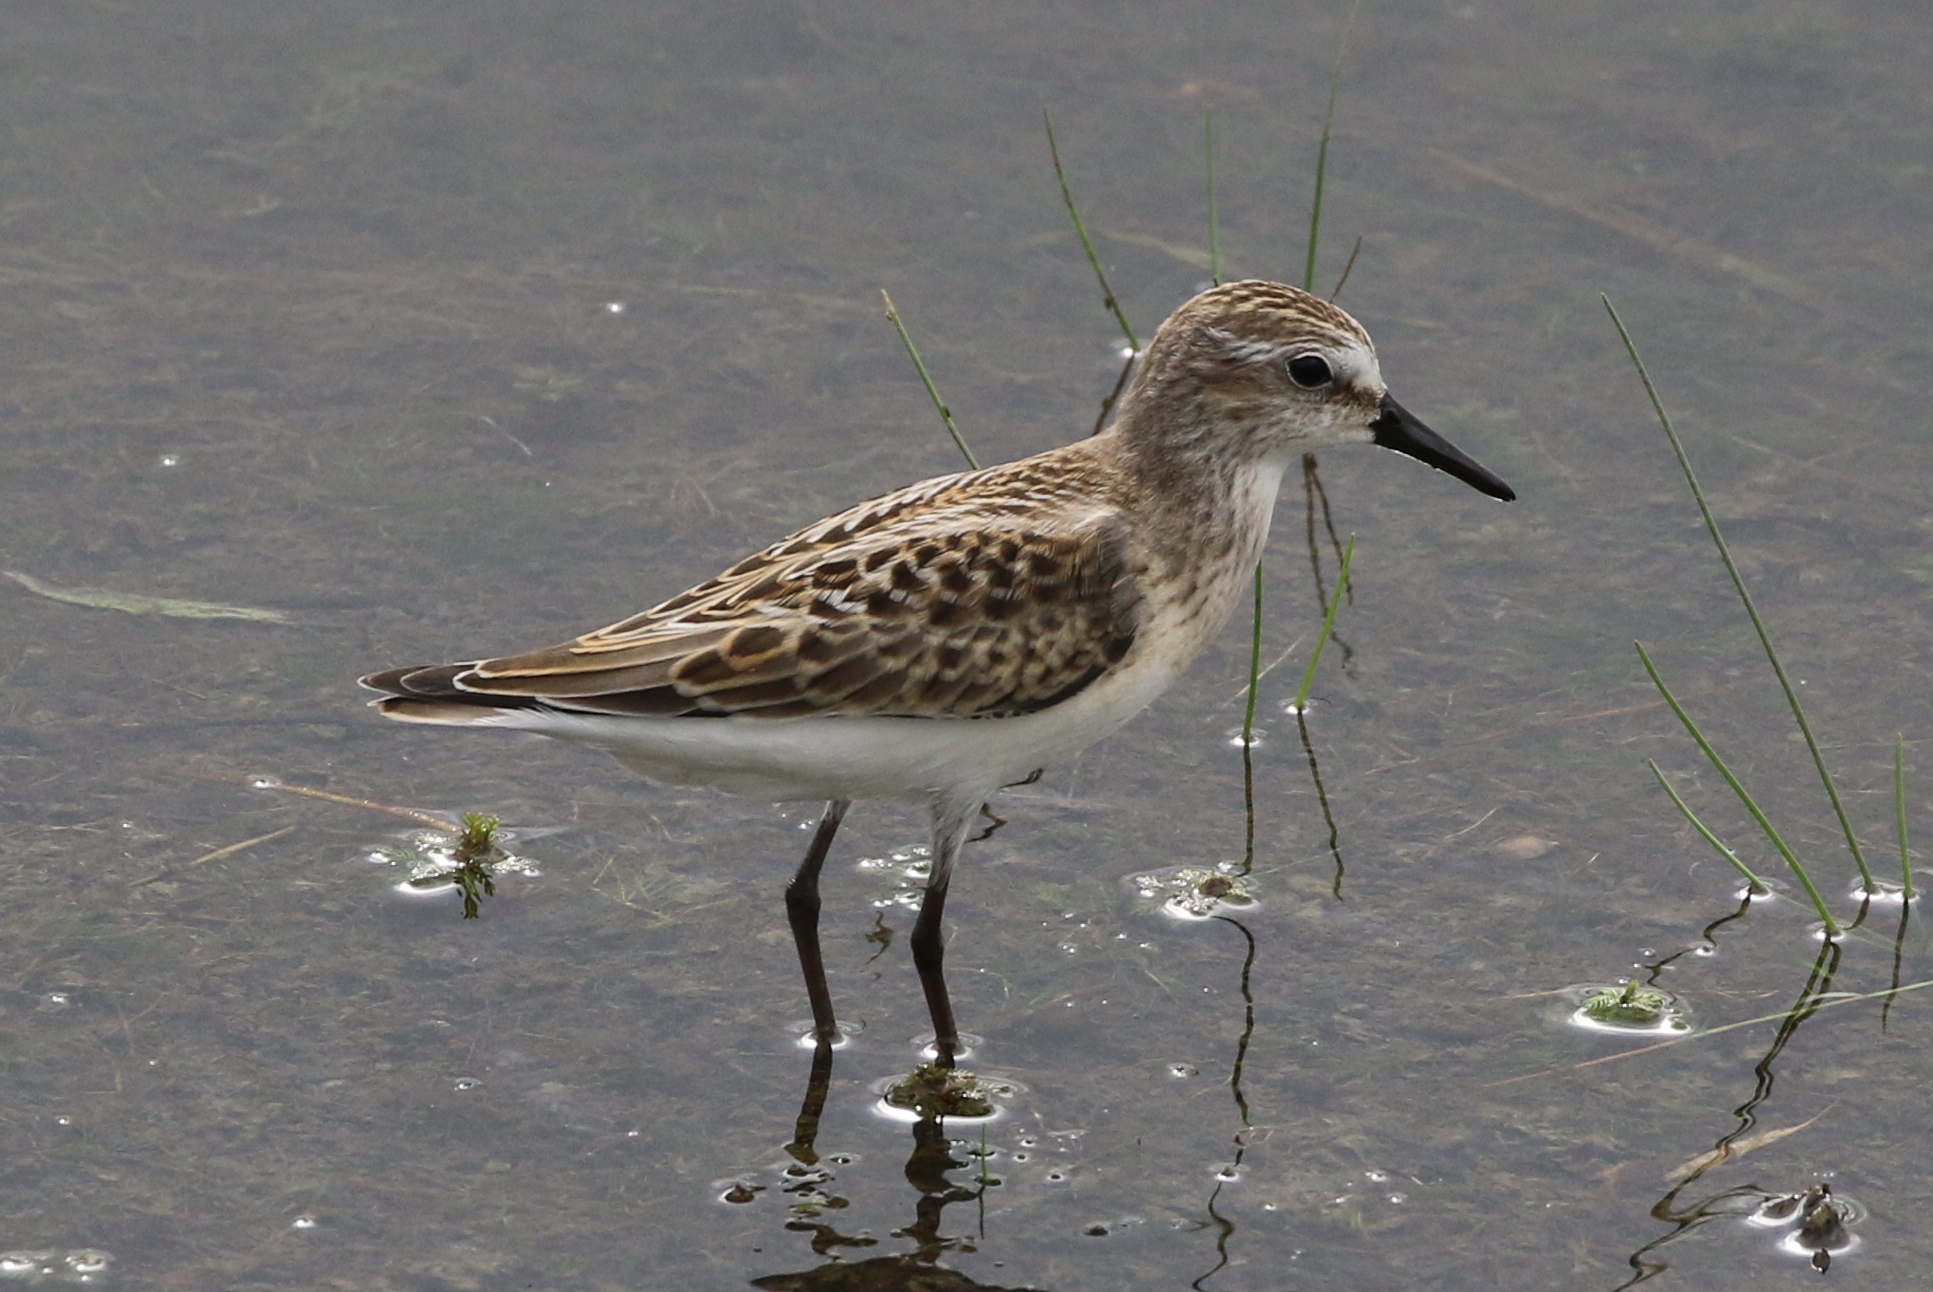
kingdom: Animalia
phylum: Chordata
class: Aves
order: Charadriiformes
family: Scolopacidae
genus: Calidris
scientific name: Calidris pusilla
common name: Semipalmated sandpiper
